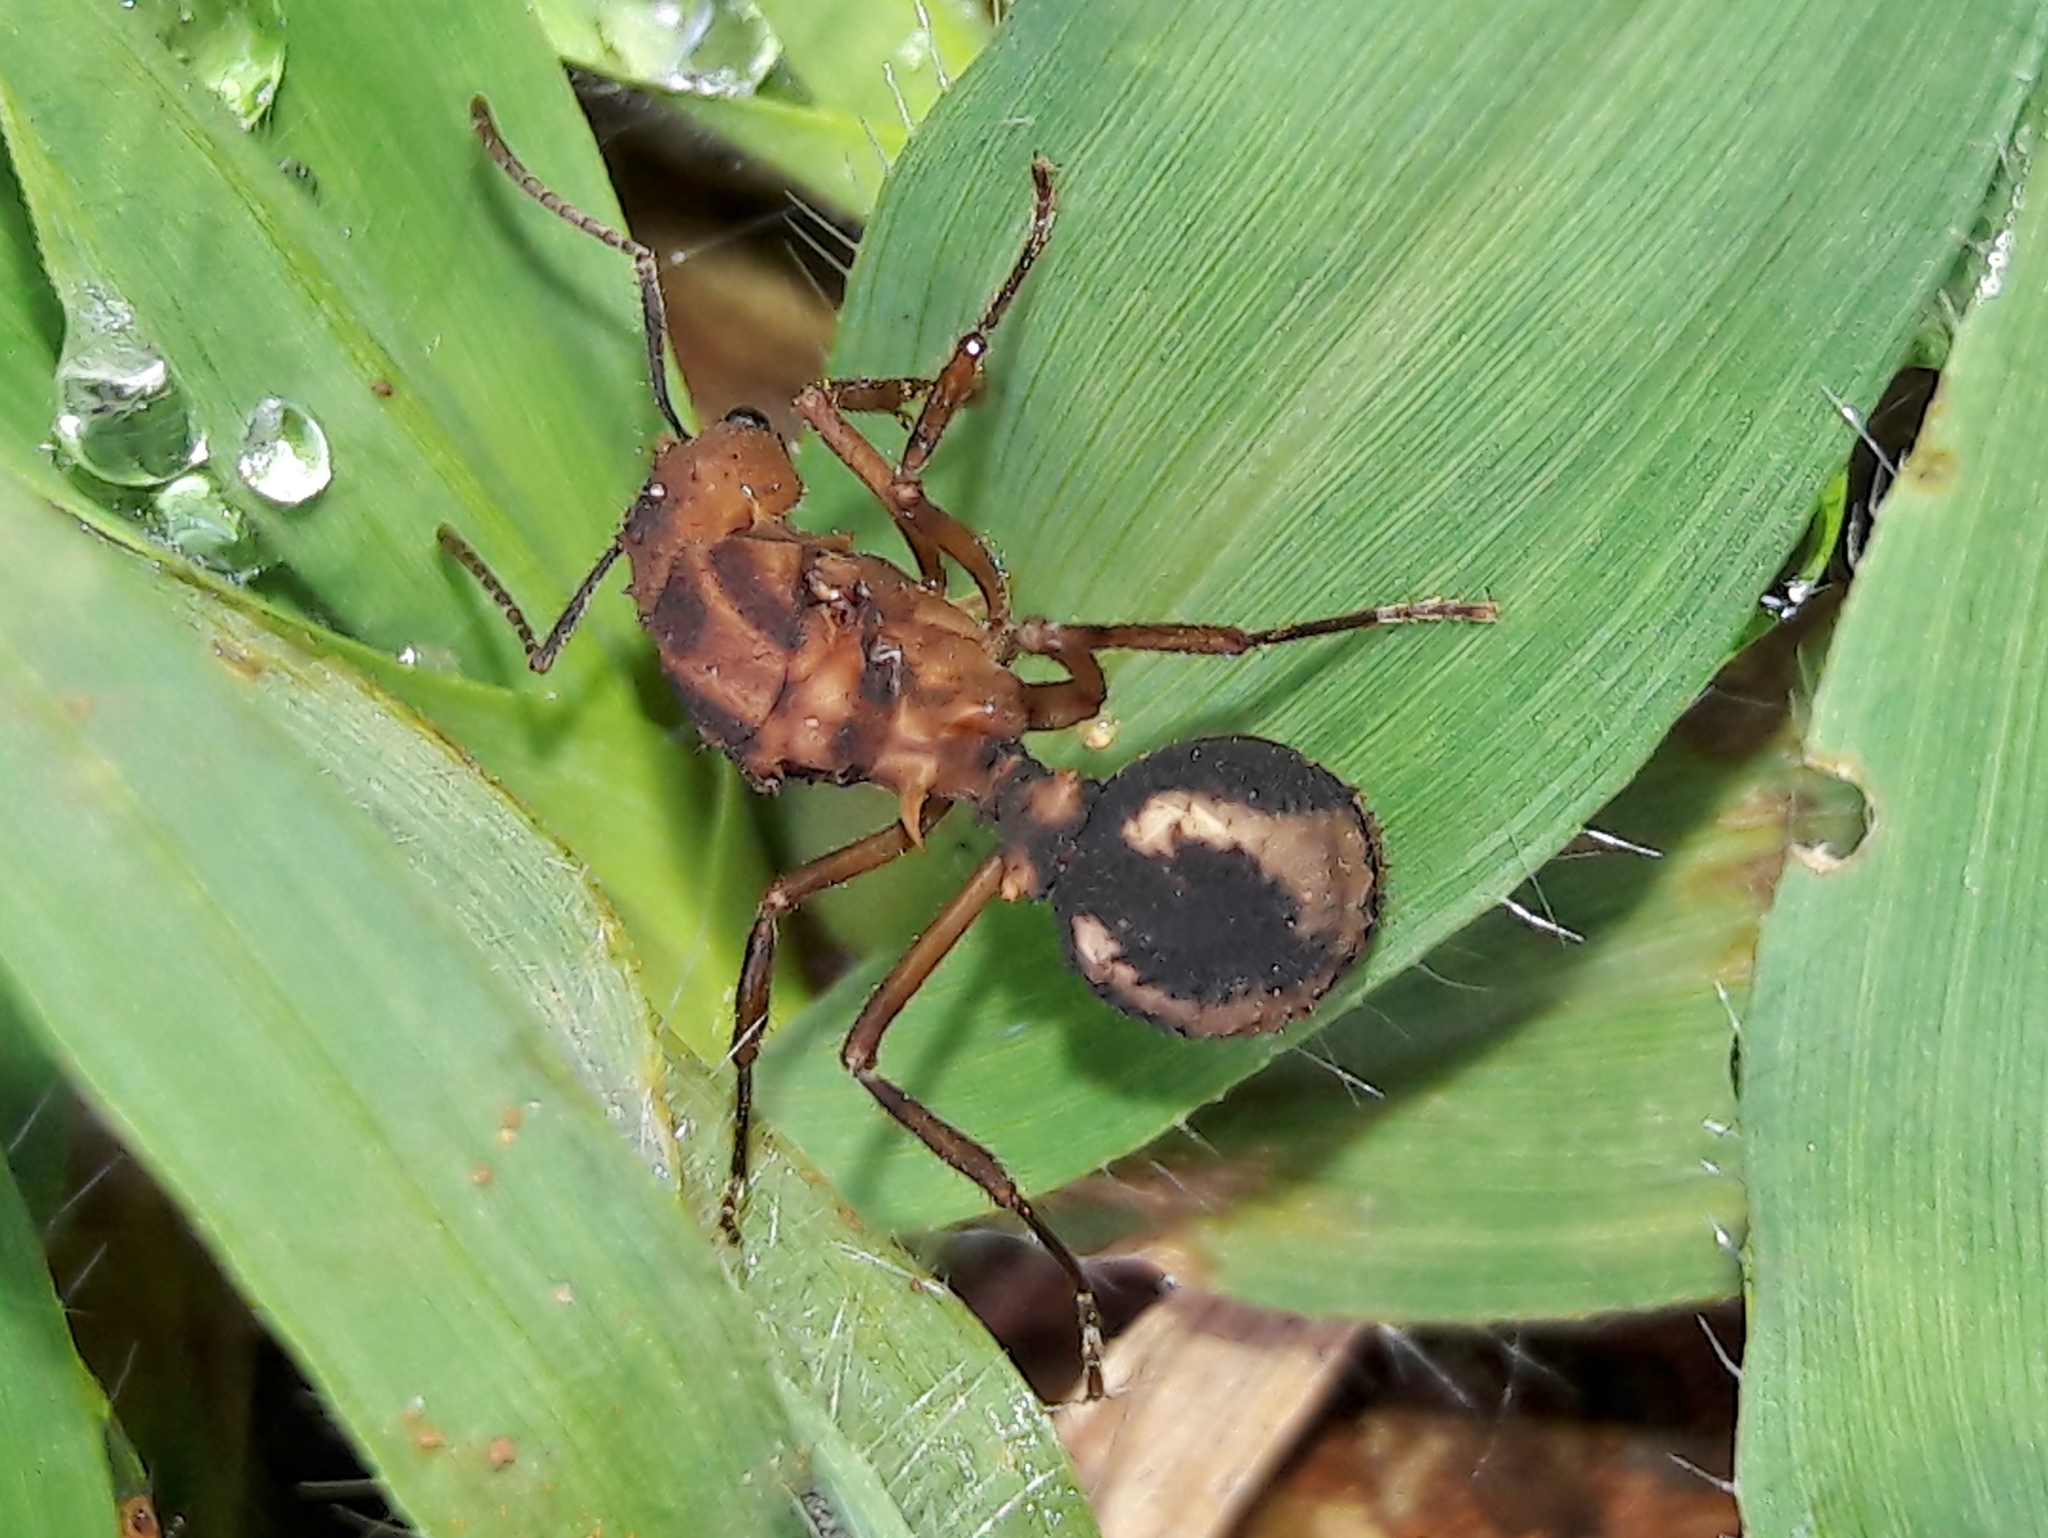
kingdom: Animalia
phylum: Arthropoda
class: Insecta
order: Hymenoptera
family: Formicidae
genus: Acromyrmex
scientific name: Acromyrmex coronatus
